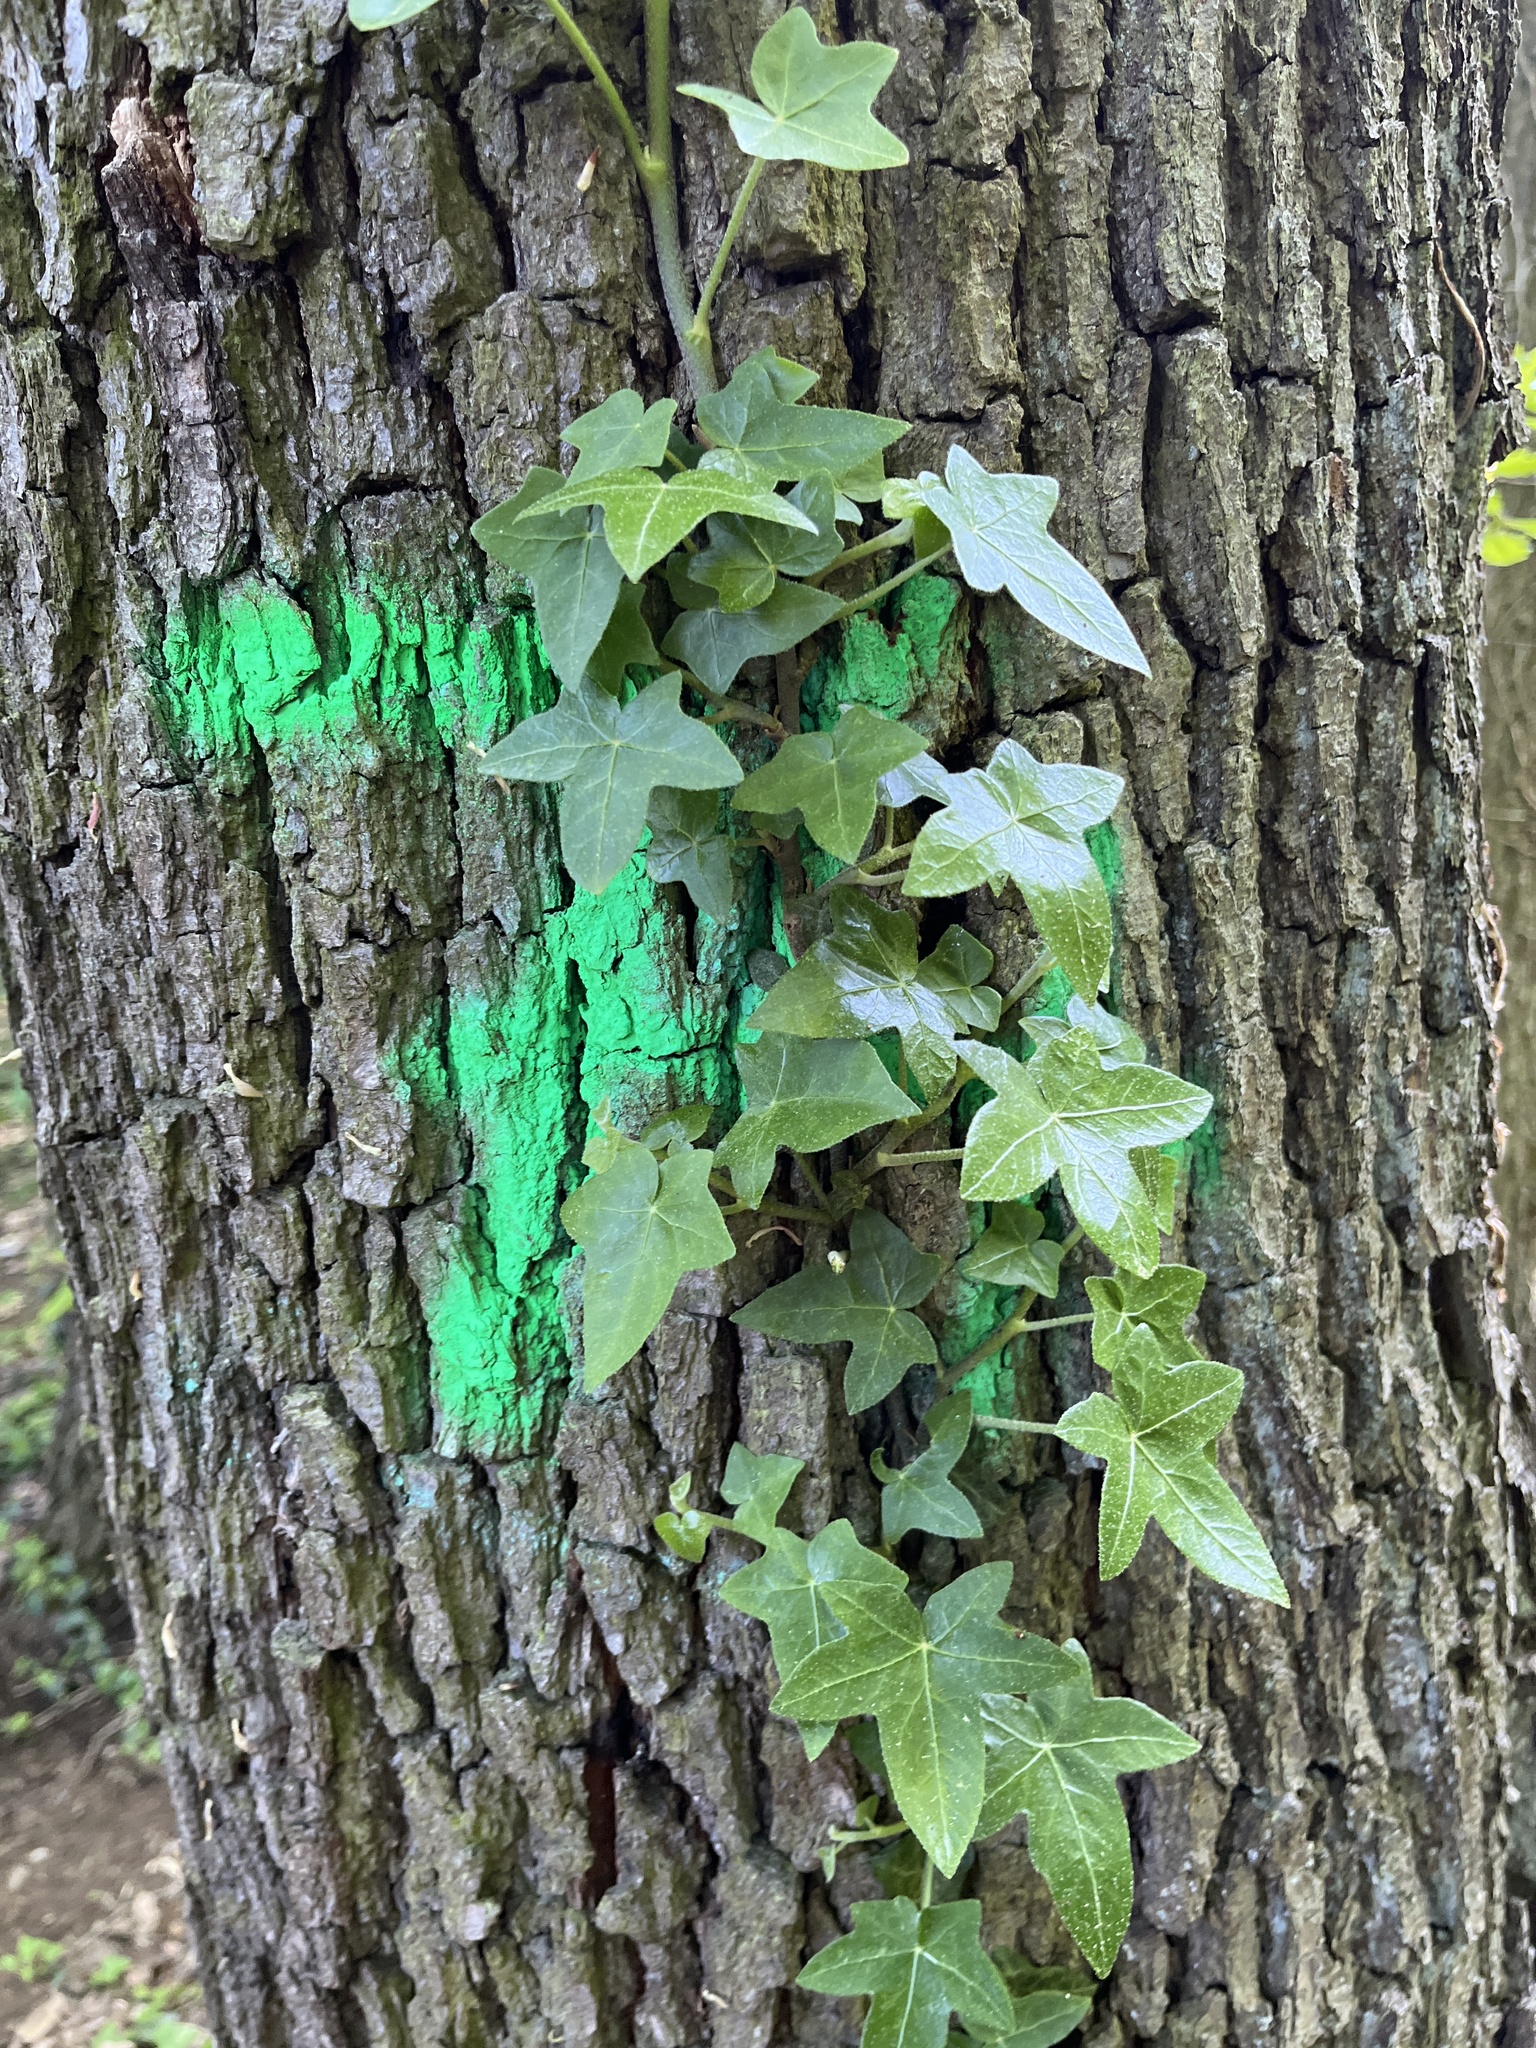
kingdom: Plantae
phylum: Tracheophyta
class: Magnoliopsida
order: Apiales
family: Araliaceae
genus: Hedera
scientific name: Hedera helix
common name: Ivy
